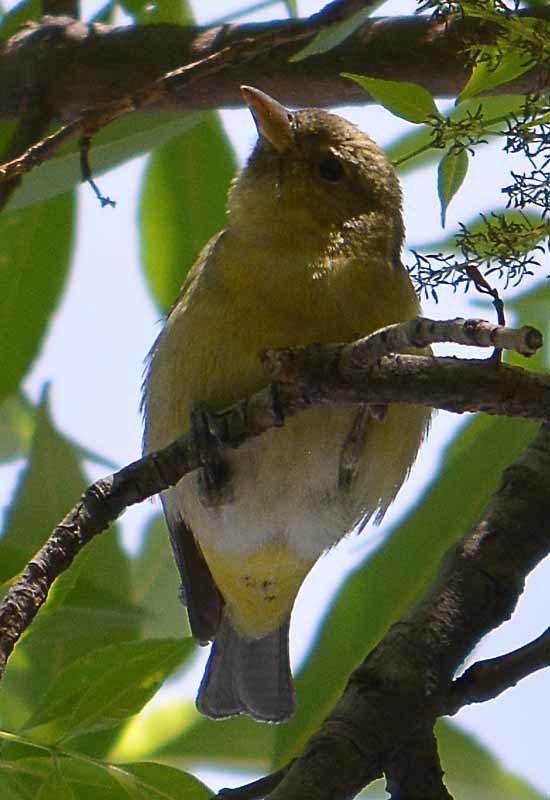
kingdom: Animalia
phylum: Chordata
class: Aves
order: Passeriformes
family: Cardinalidae
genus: Piranga
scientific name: Piranga ludoviciana
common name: Western tanager
